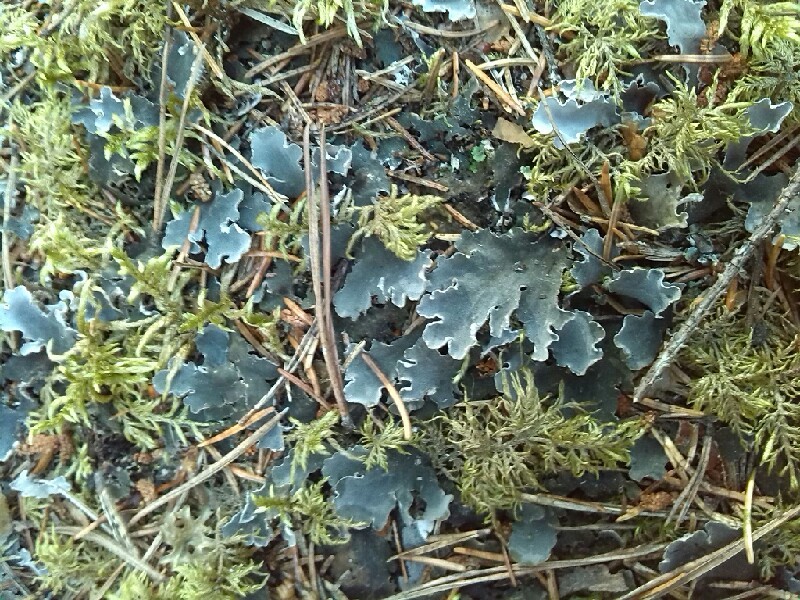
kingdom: Fungi
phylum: Ascomycota
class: Lecanoromycetes
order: Peltigerales
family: Peltigeraceae
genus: Peltigera
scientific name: Peltigera rufescens
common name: Field dog lichen
